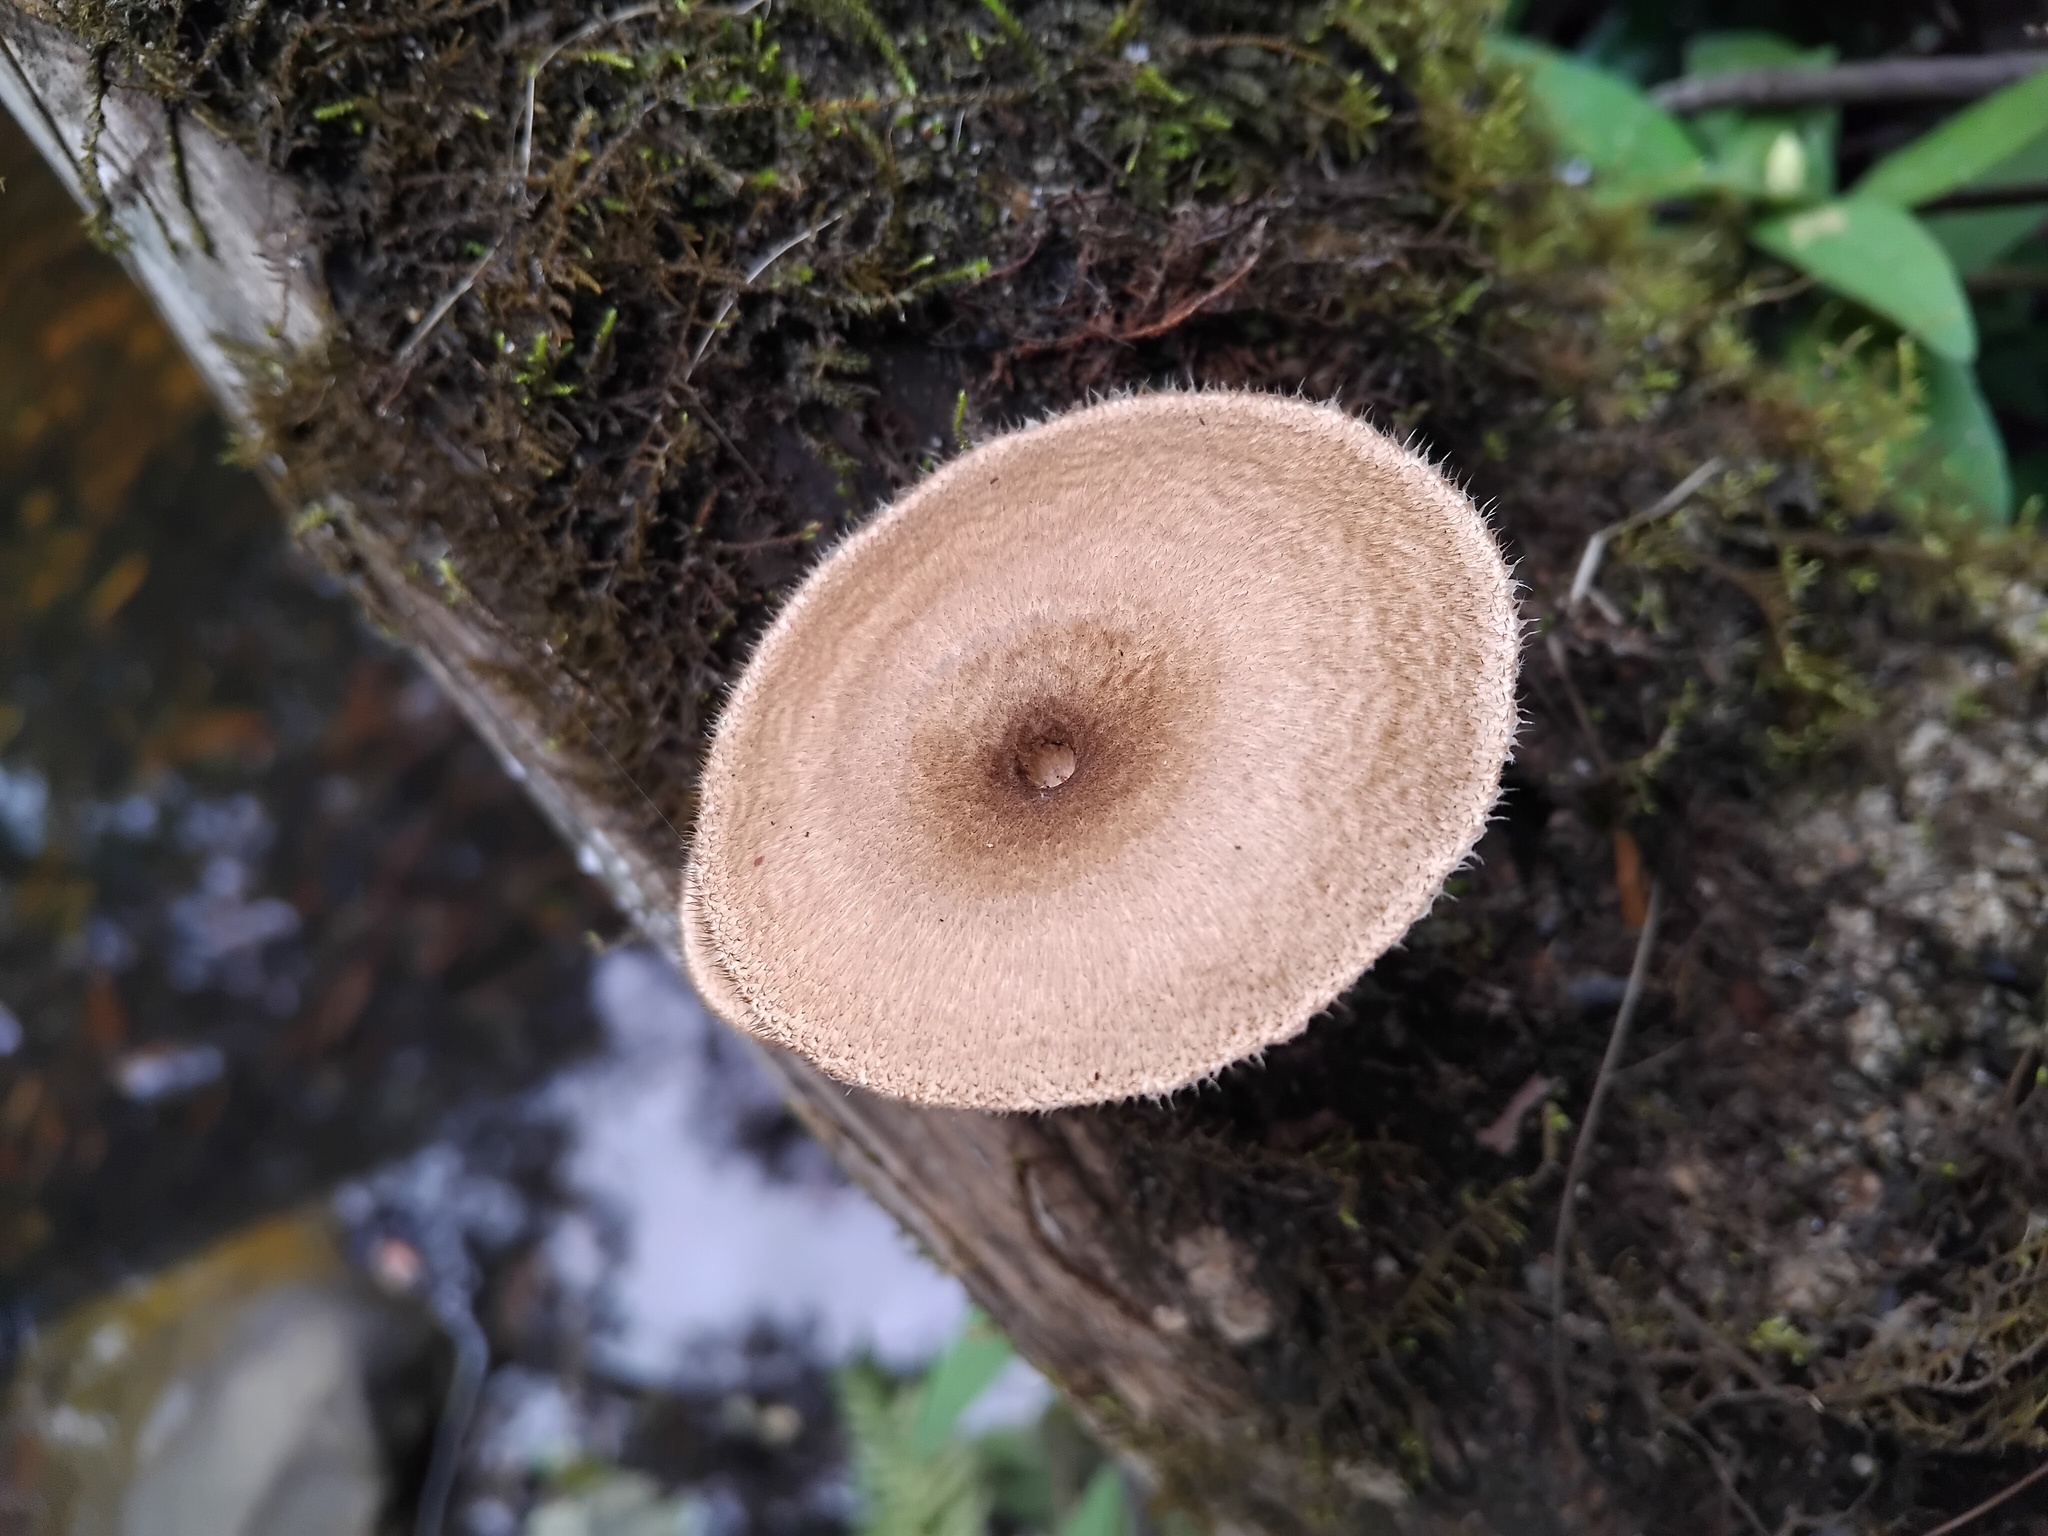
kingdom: Fungi
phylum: Basidiomycota
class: Agaricomycetes
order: Polyporales
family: Polyporaceae
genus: Lentinus
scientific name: Lentinus arcularius
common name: Spring polypore
